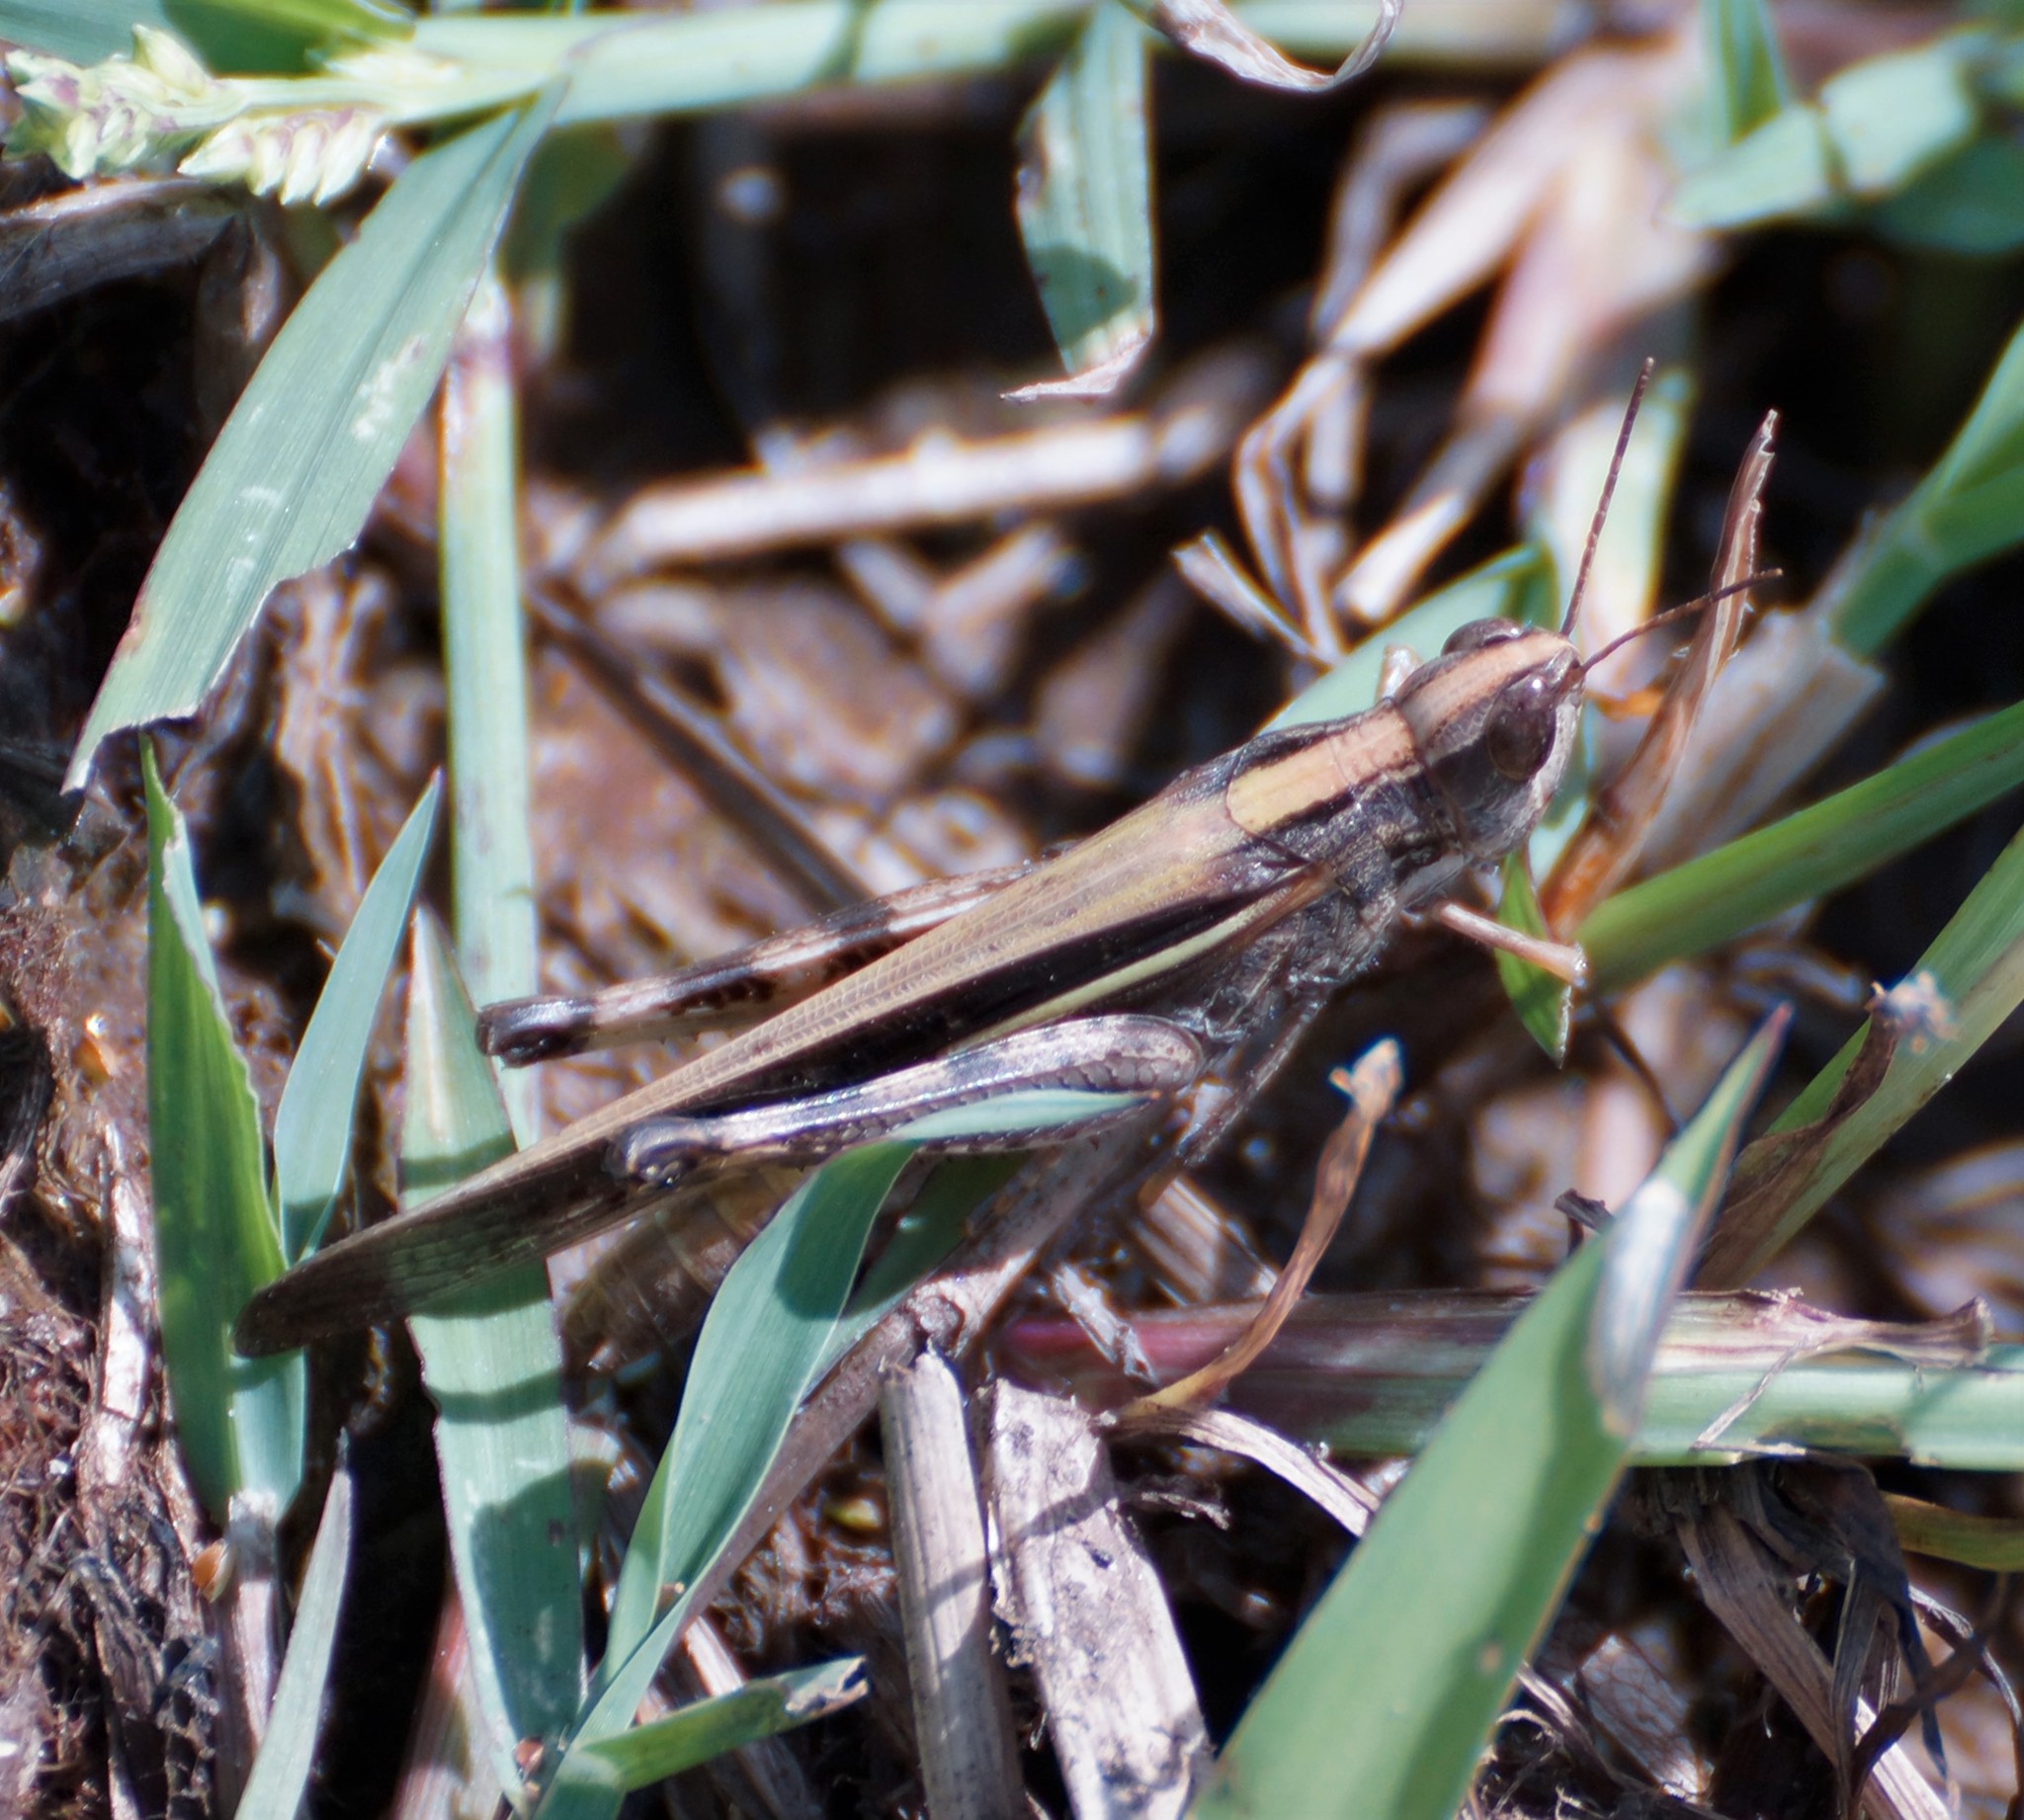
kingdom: Animalia
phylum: Arthropoda
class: Insecta
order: Orthoptera
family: Acrididae
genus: Aiolopus
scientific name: Aiolopus thalassinus
